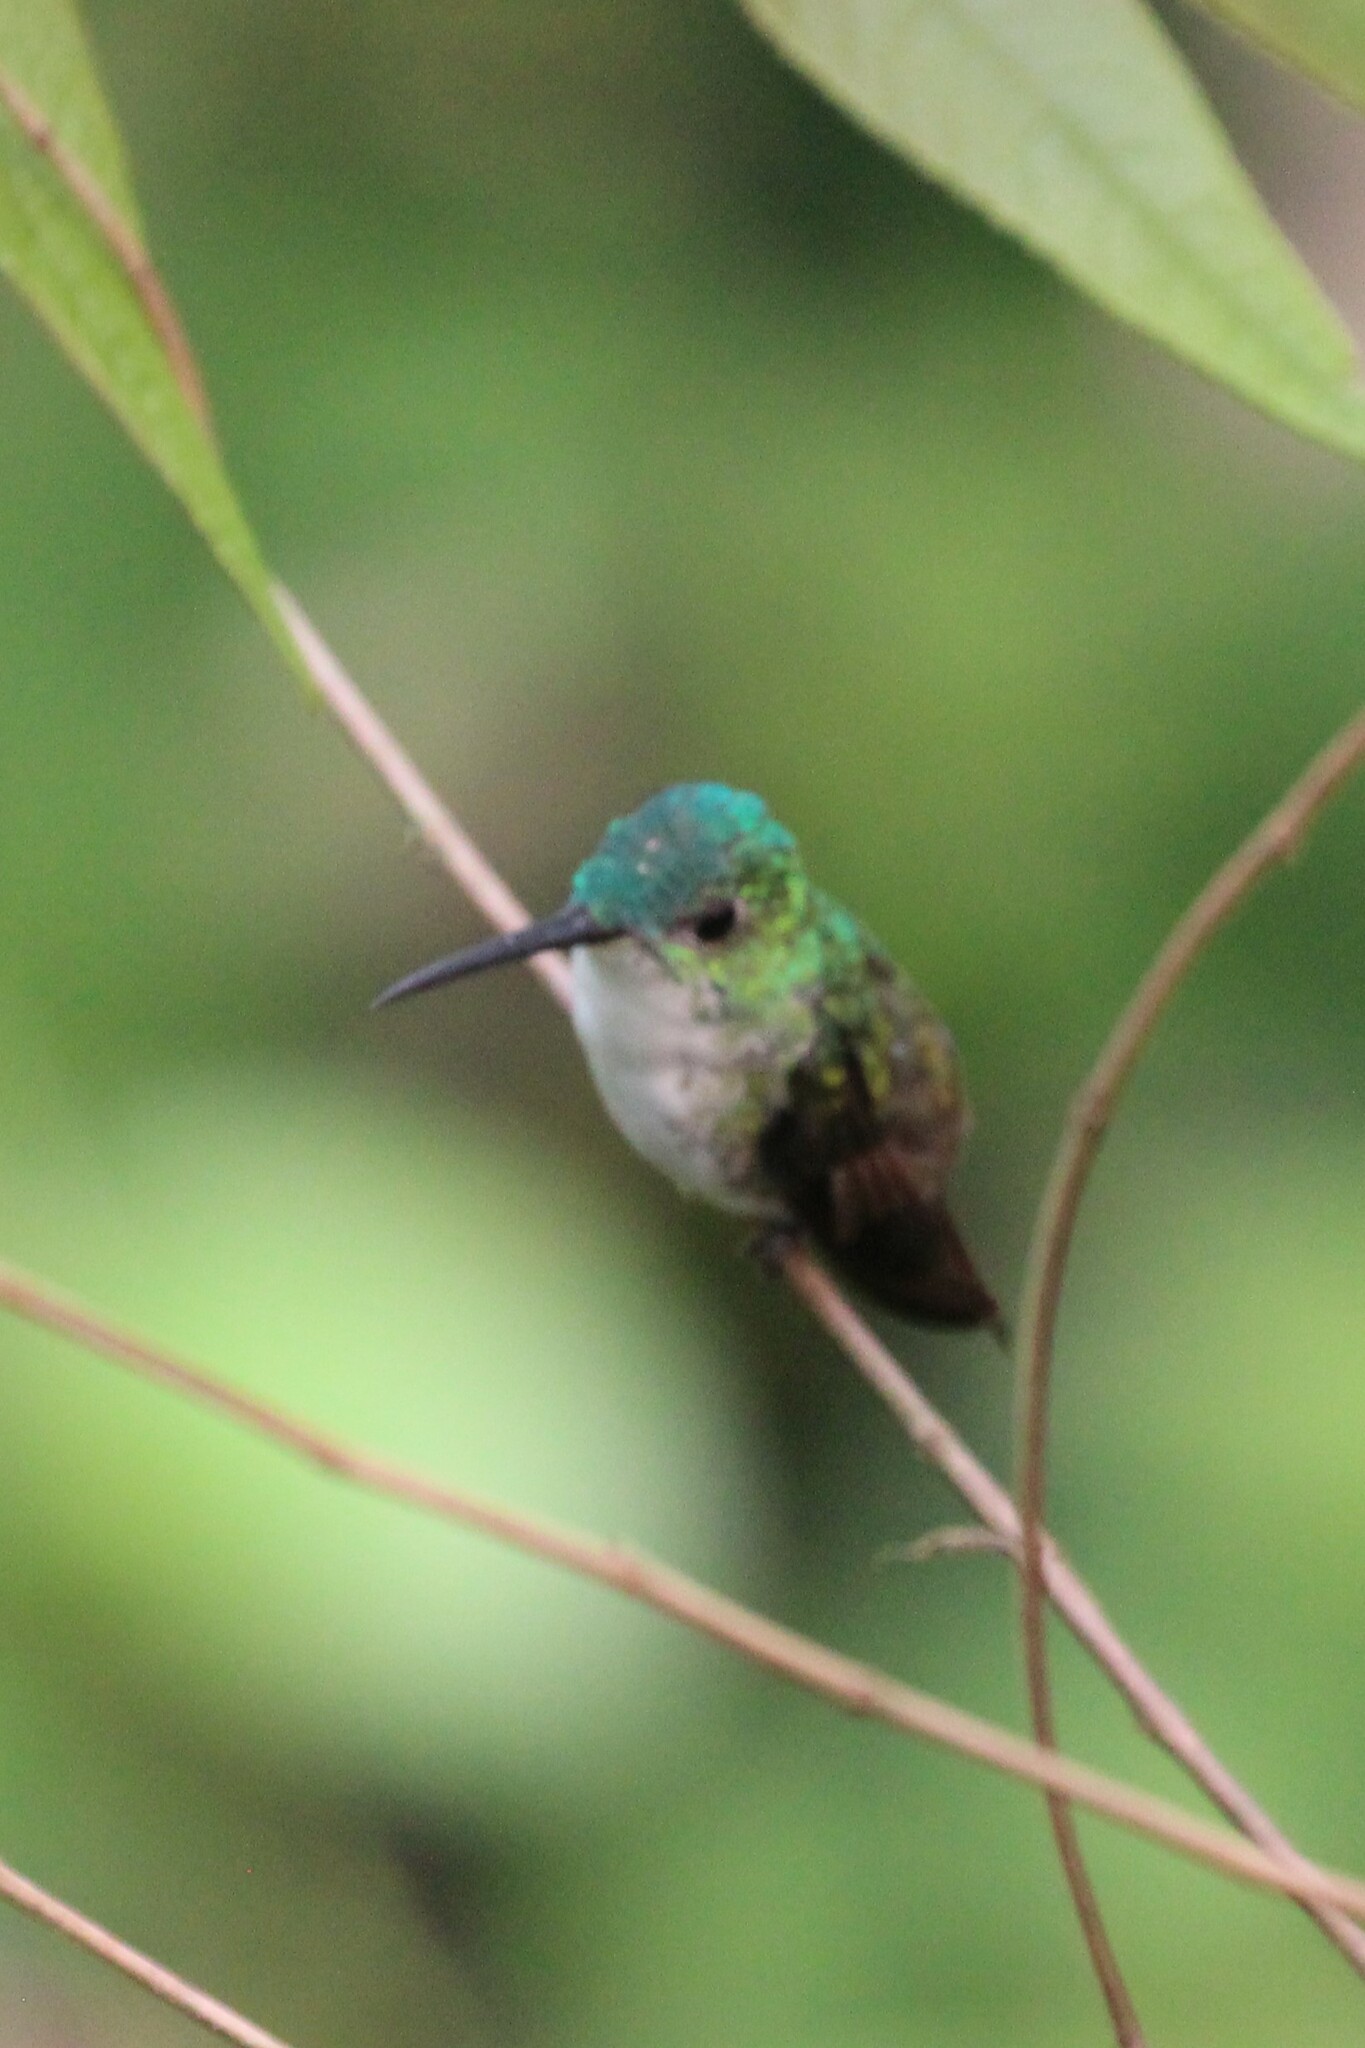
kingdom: Animalia
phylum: Chordata
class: Aves
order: Apodiformes
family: Trochilidae
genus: Uranomitra
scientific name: Uranomitra franciae
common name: Andean emerald
